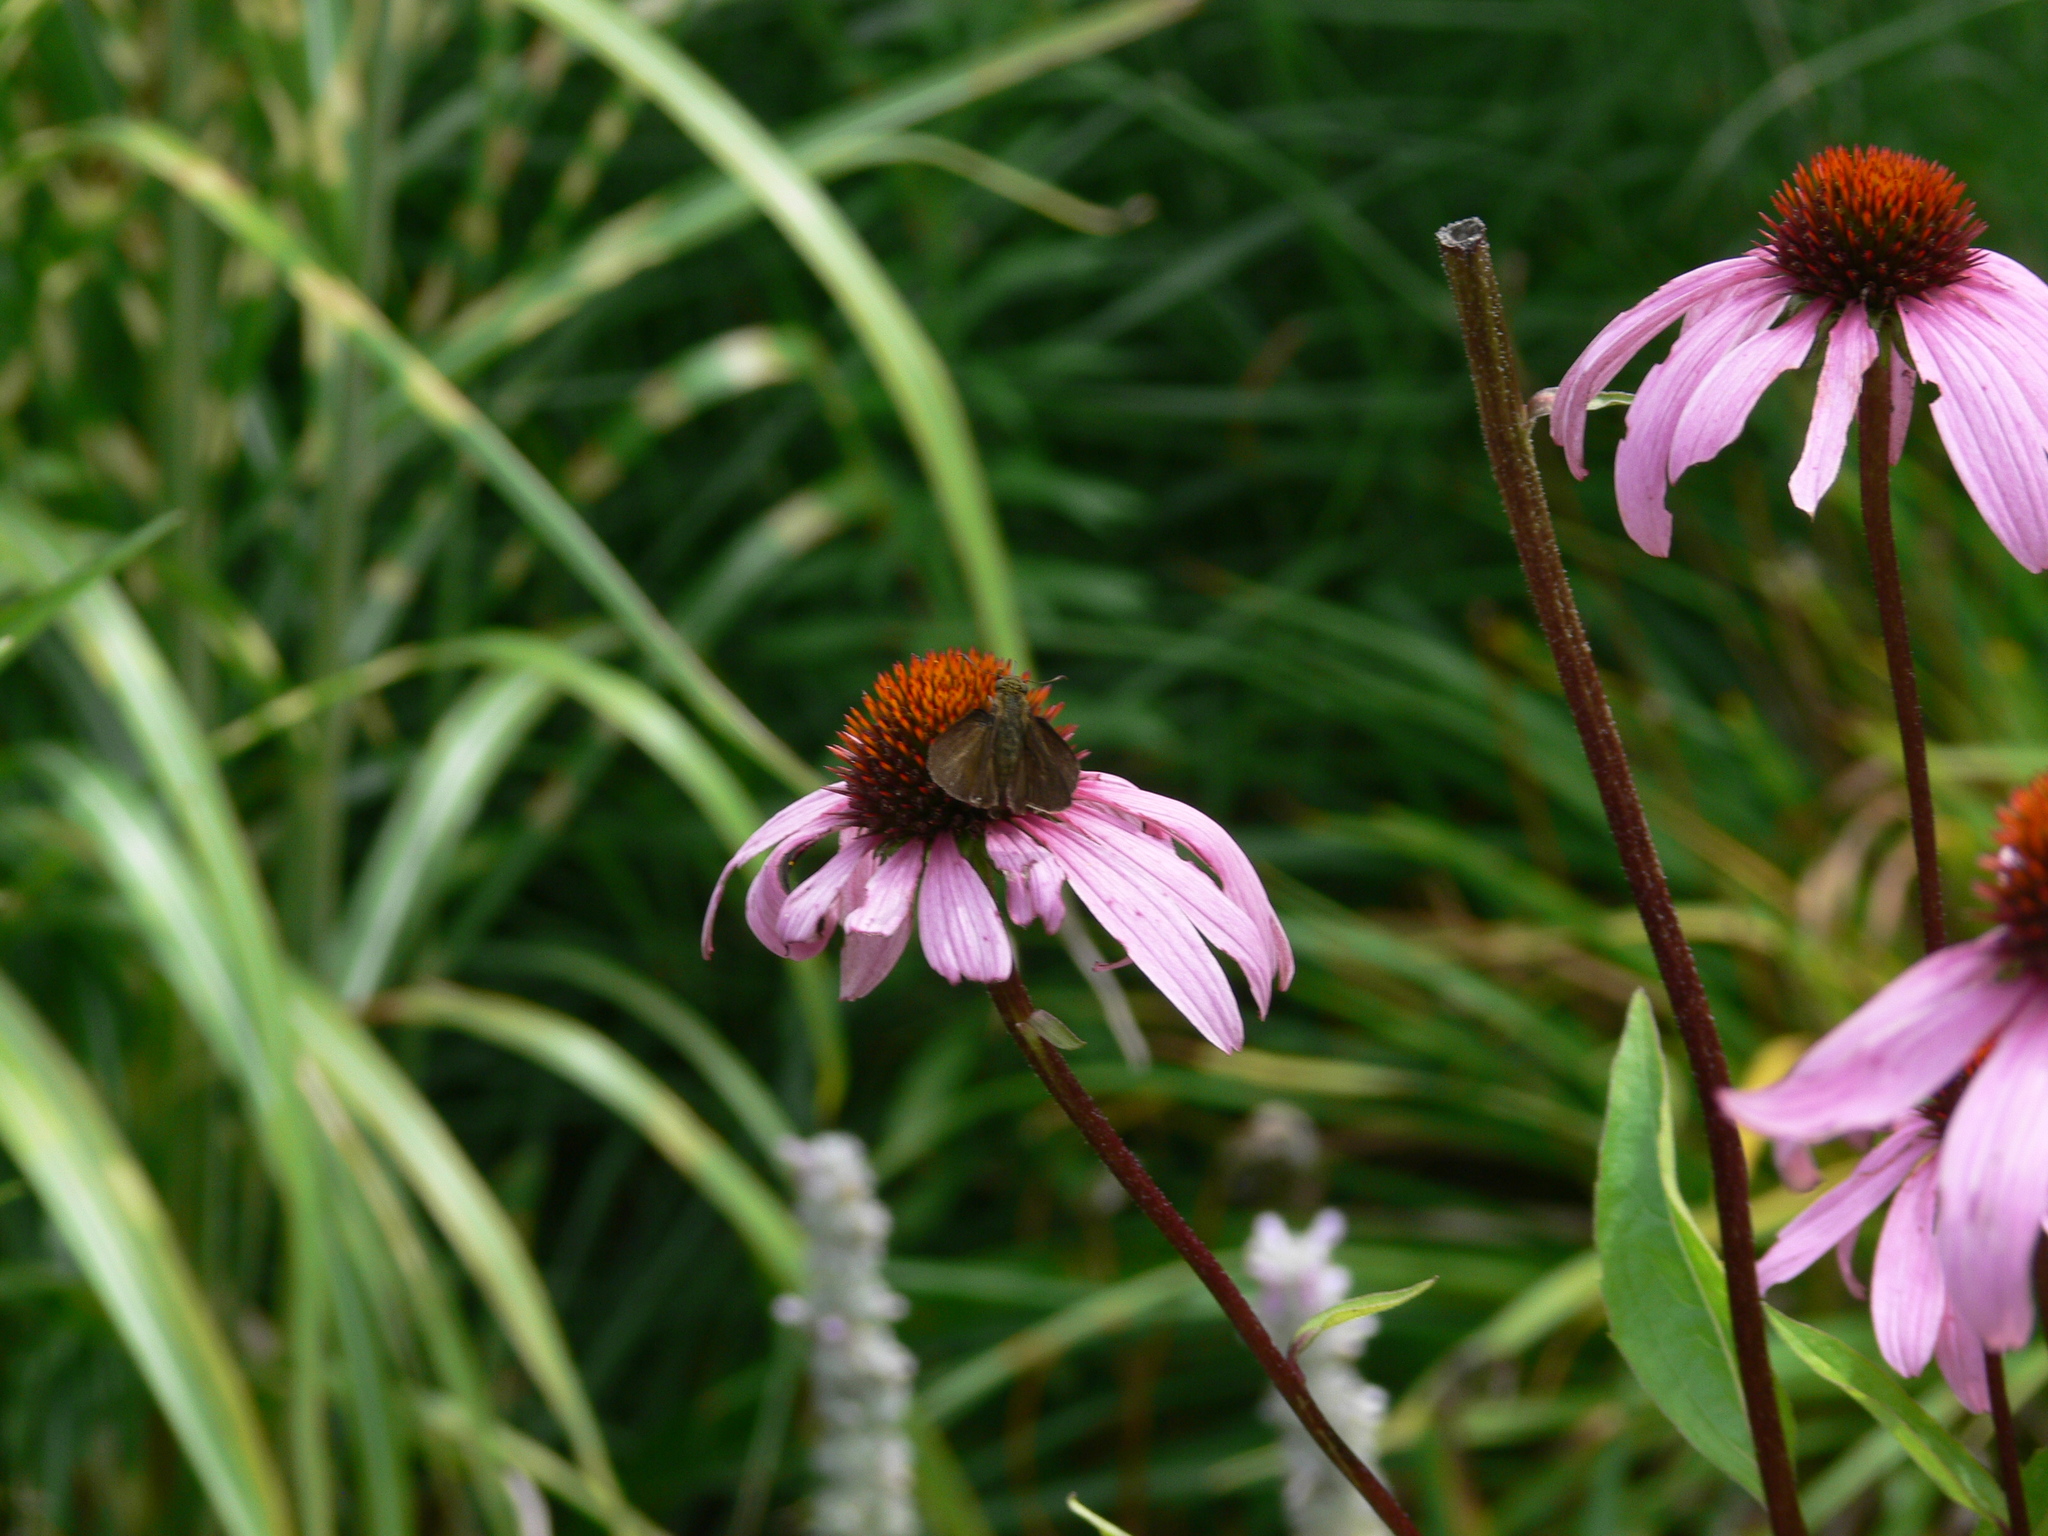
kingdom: Animalia
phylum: Arthropoda
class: Insecta
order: Lepidoptera
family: Hesperiidae
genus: Euphyes
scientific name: Euphyes vestris
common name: Dun skipper
